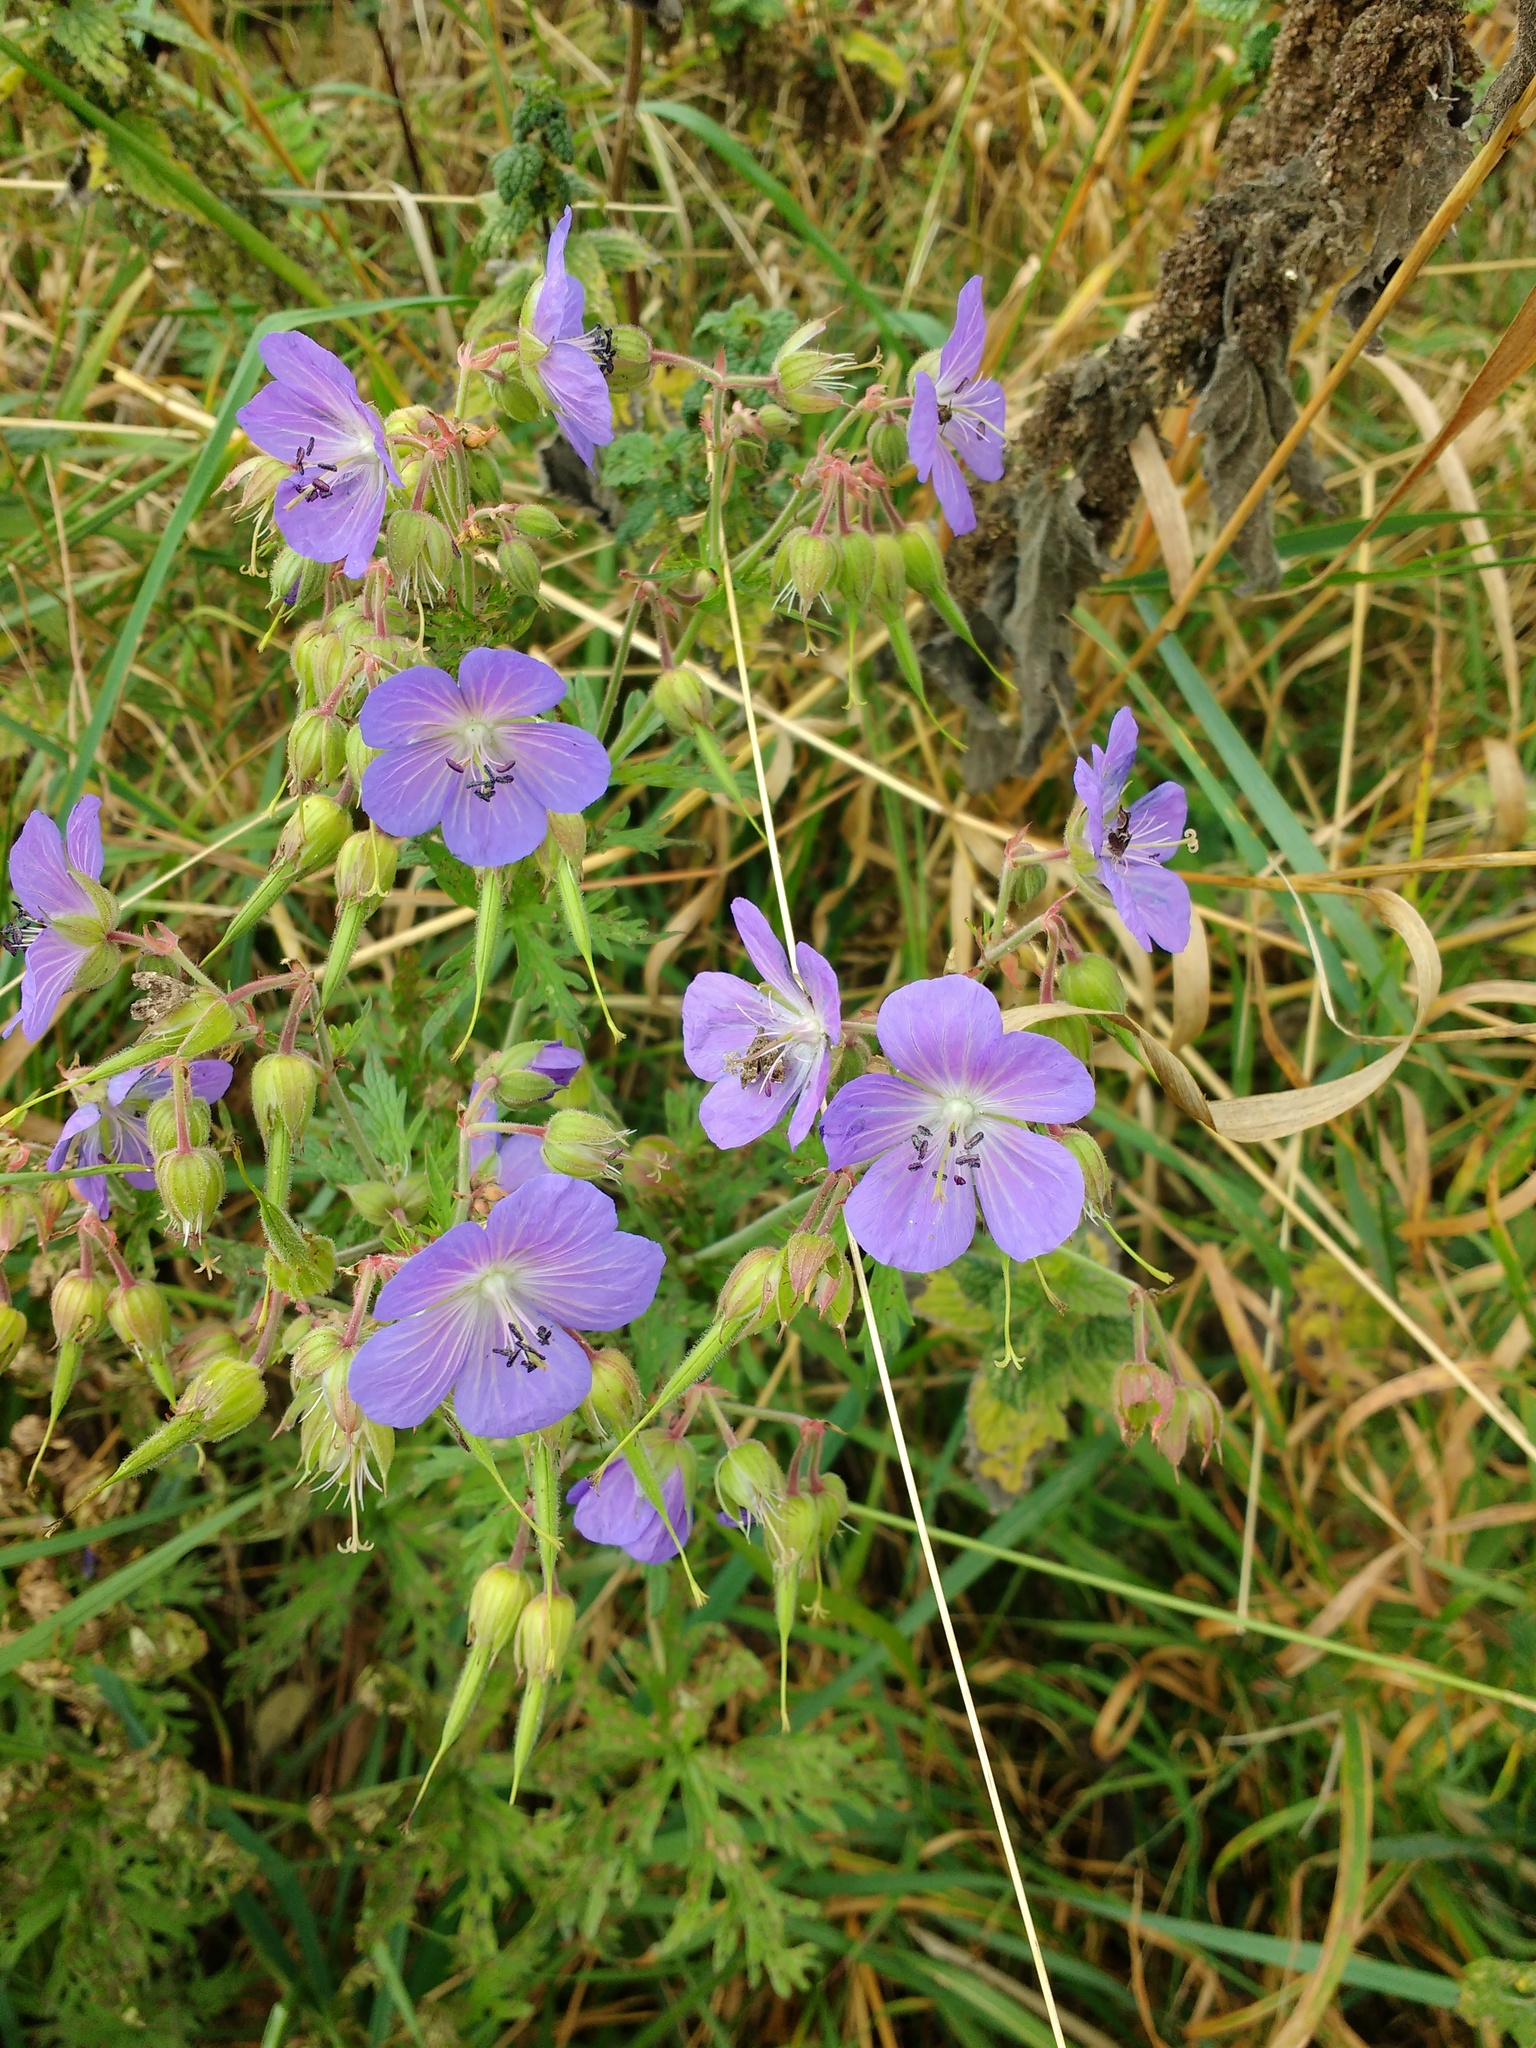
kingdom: Plantae
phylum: Tracheophyta
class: Magnoliopsida
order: Geraniales
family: Geraniaceae
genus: Geranium
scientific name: Geranium pratense
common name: Meadow crane's-bill
